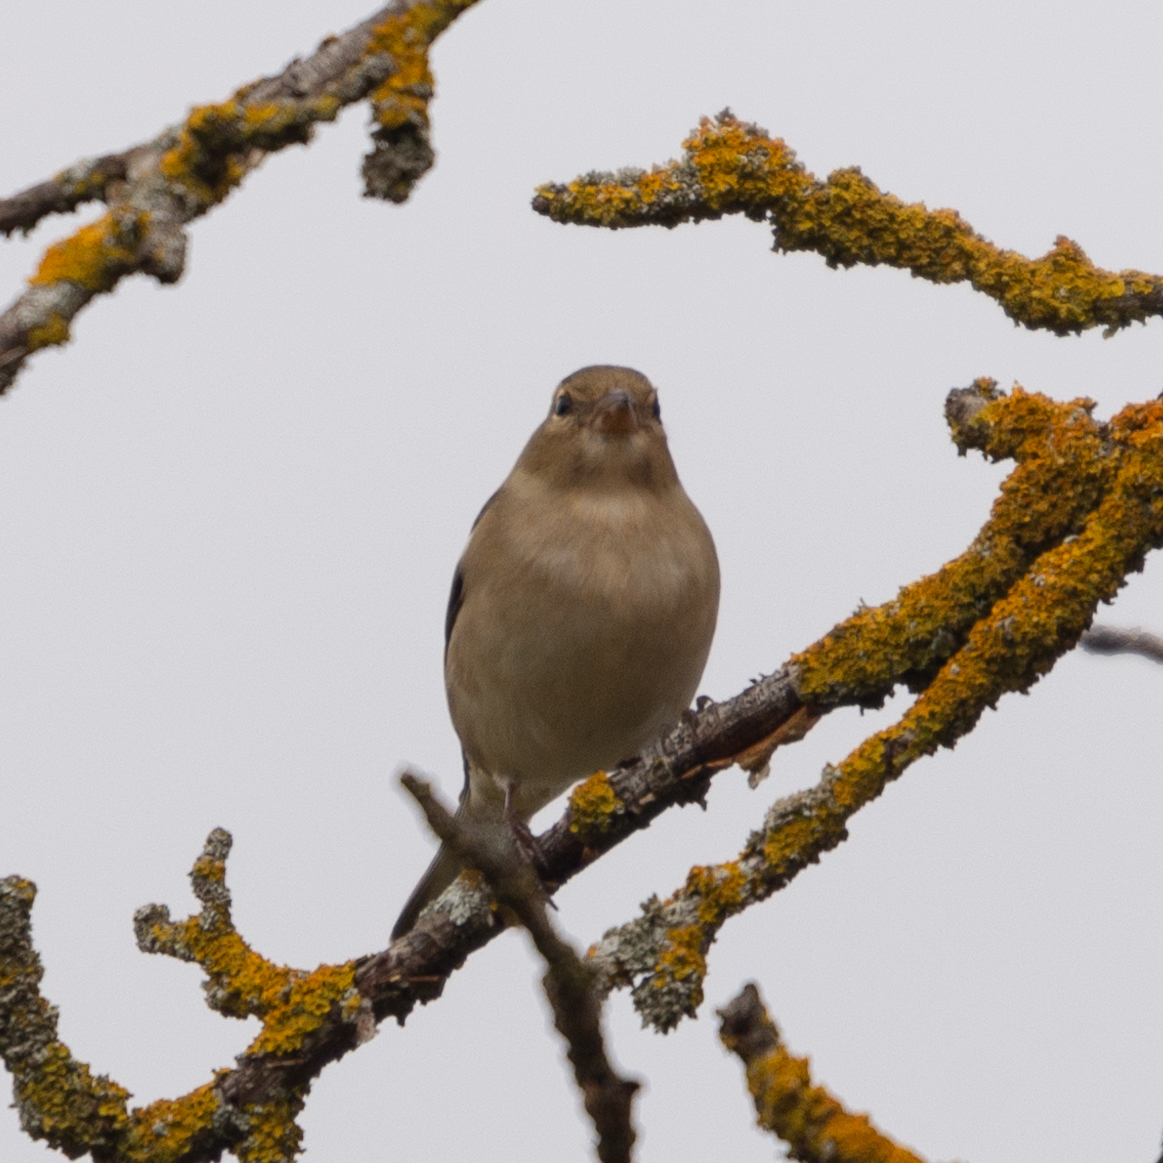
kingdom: Animalia
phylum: Chordata
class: Aves
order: Passeriformes
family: Fringillidae
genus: Fringilla
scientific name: Fringilla coelebs
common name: Common chaffinch
